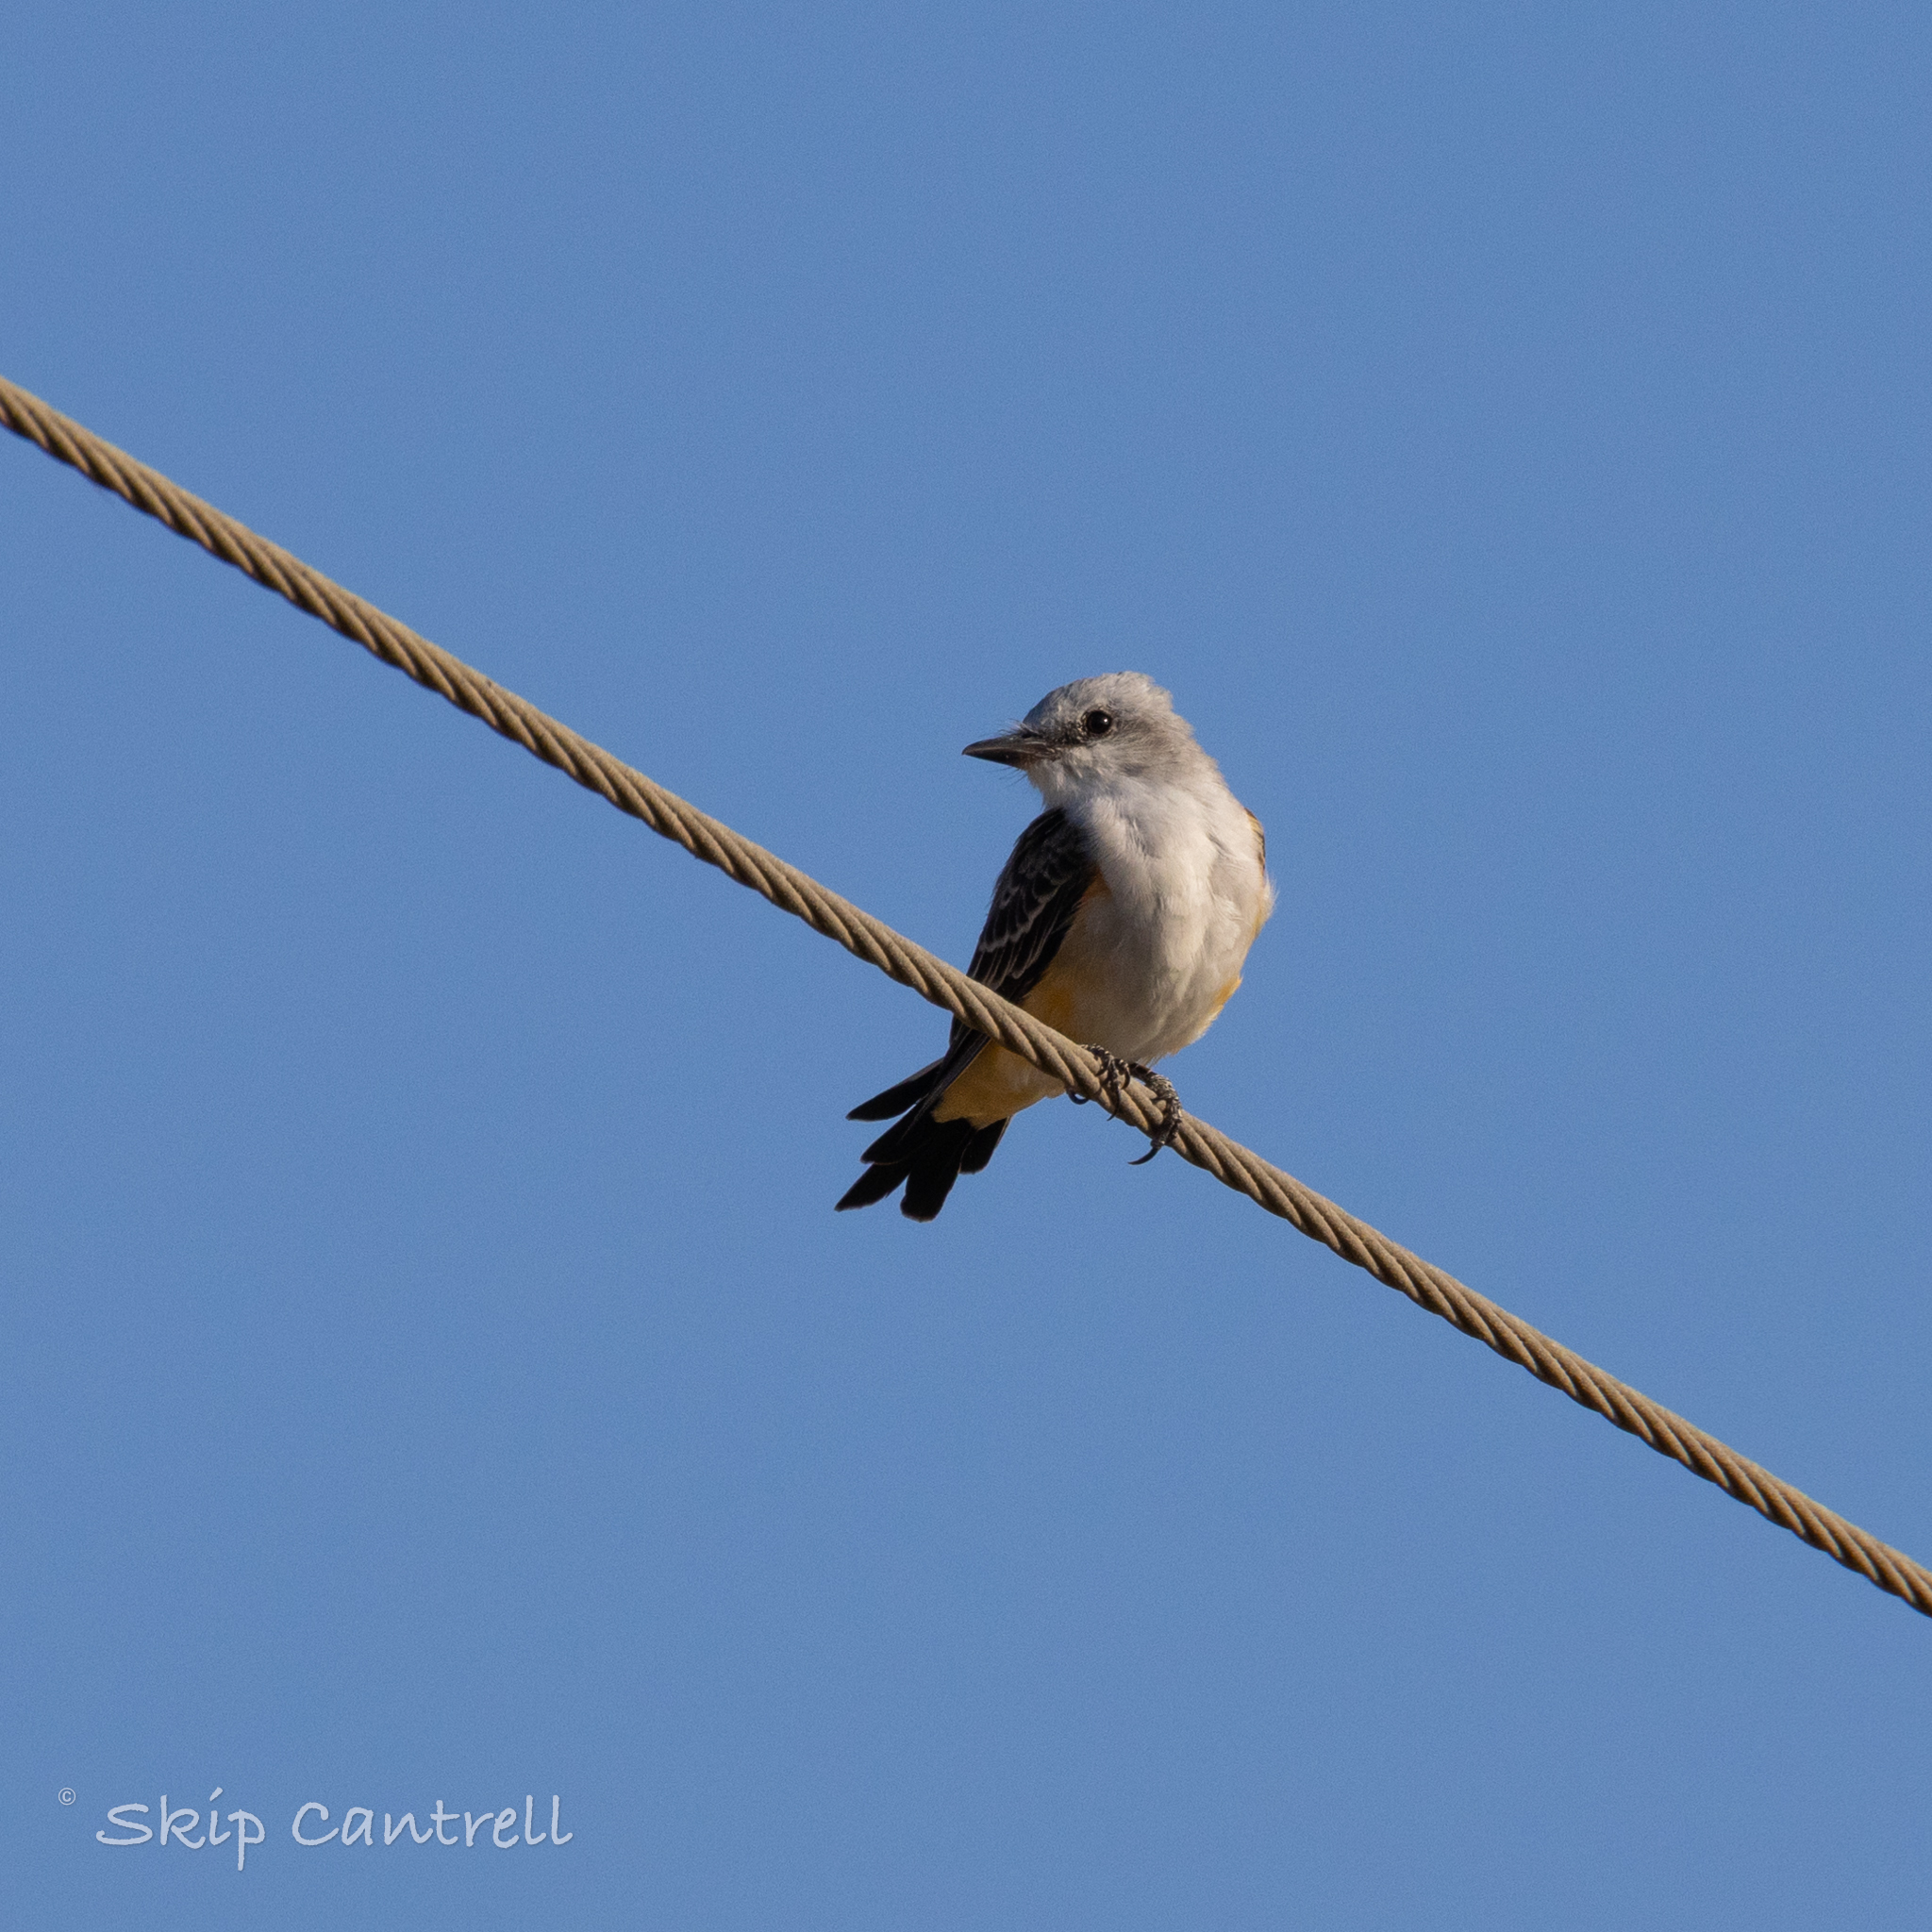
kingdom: Animalia
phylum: Chordata
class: Aves
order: Passeriformes
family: Tyrannidae
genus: Tyrannus
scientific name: Tyrannus forficatus
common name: Scissor-tailed flycatcher
